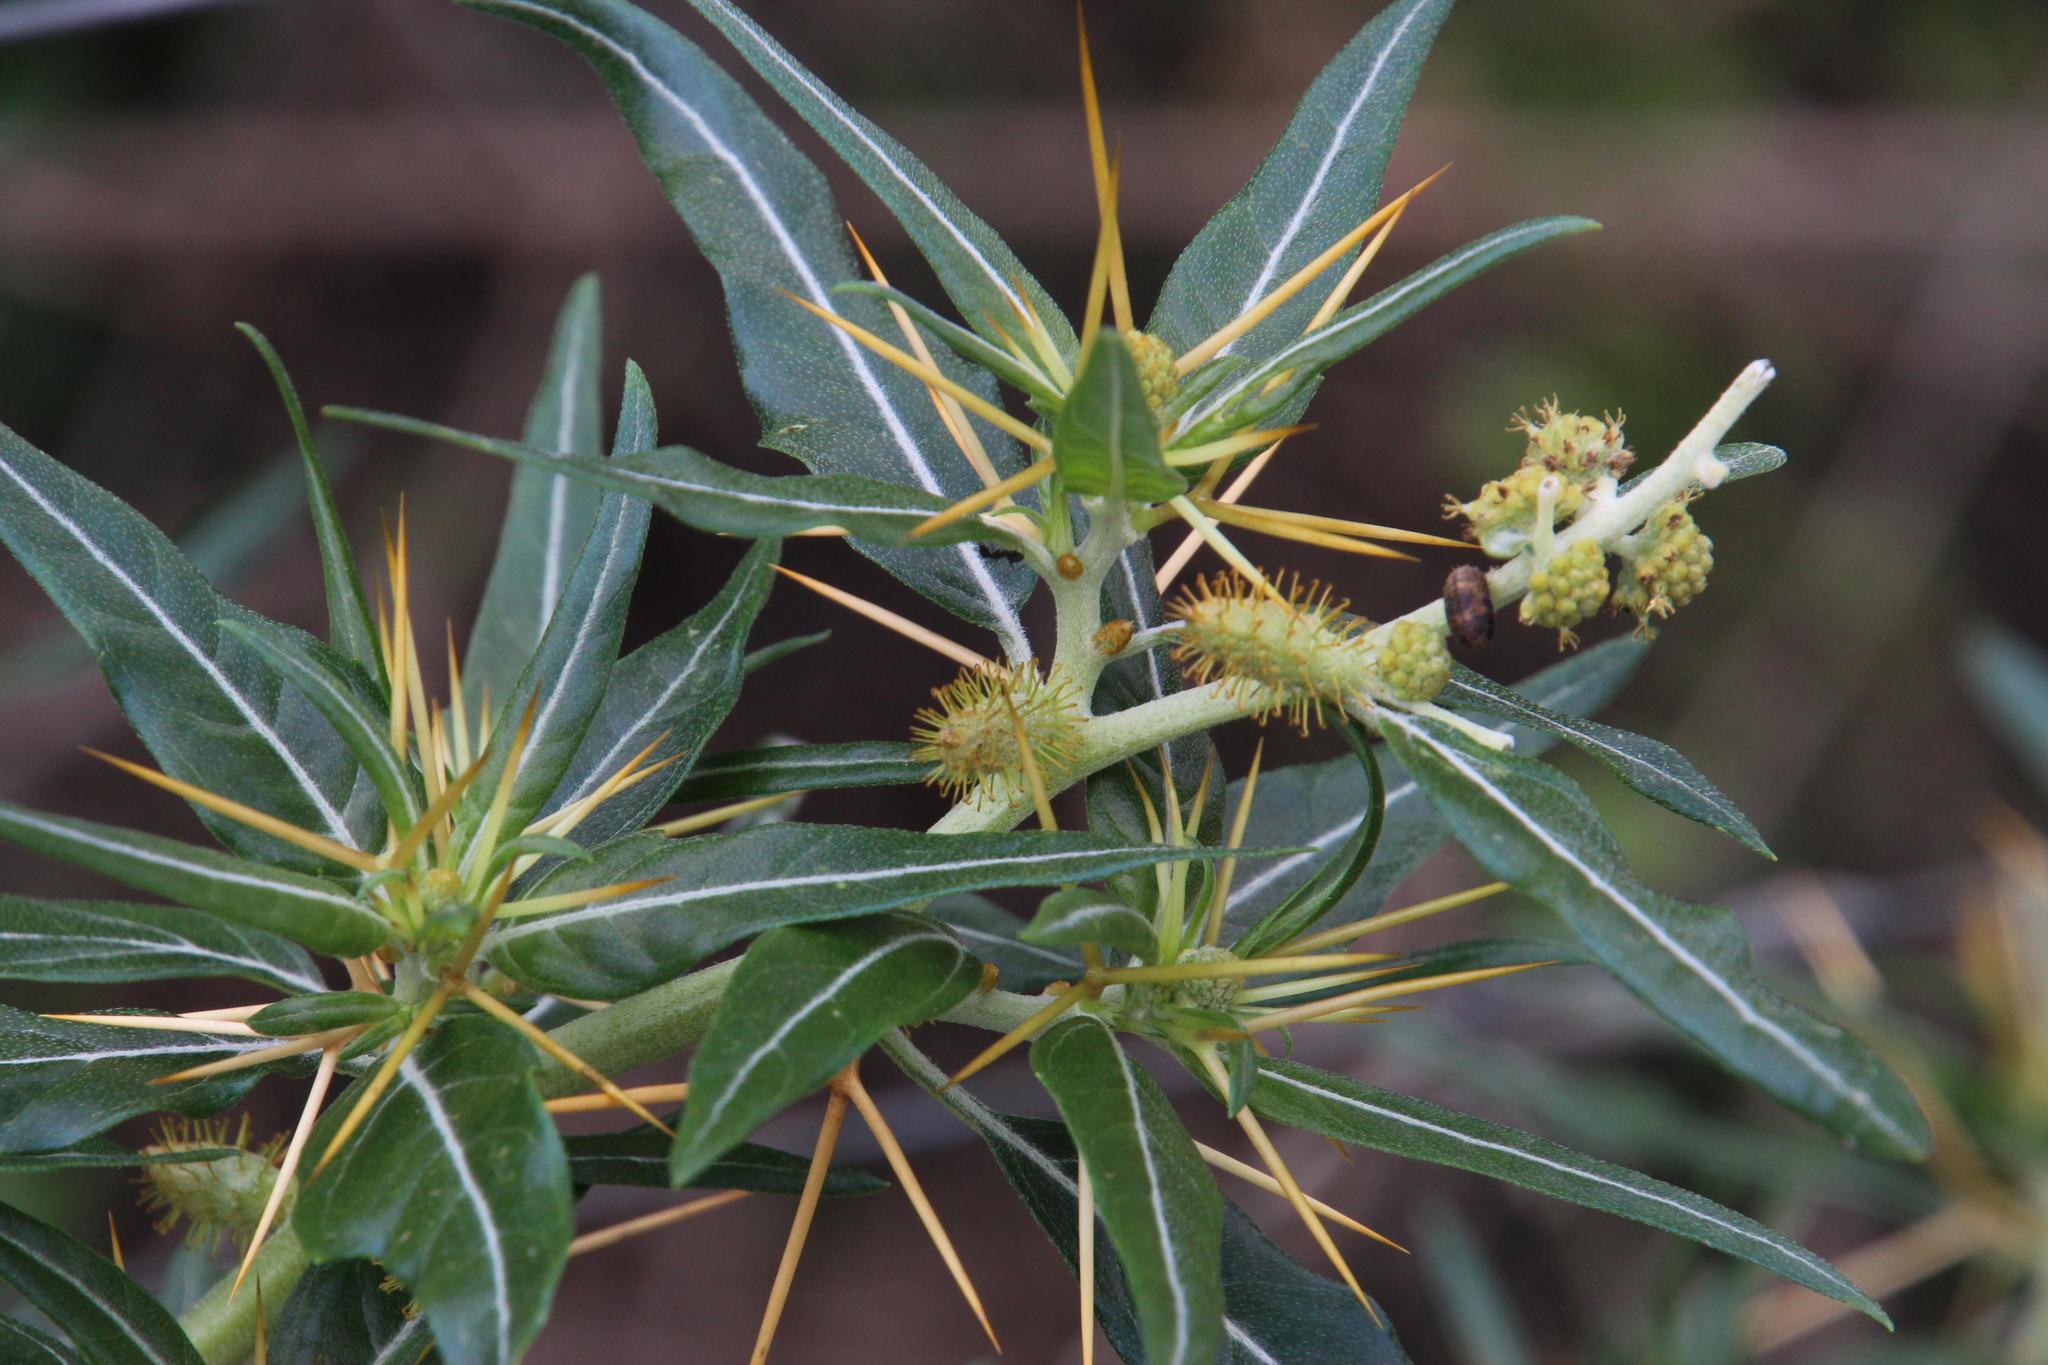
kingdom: Plantae
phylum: Tracheophyta
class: Magnoliopsida
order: Asterales
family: Asteraceae
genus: Xanthium
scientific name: Xanthium spinosum
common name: Spiny cocklebur
